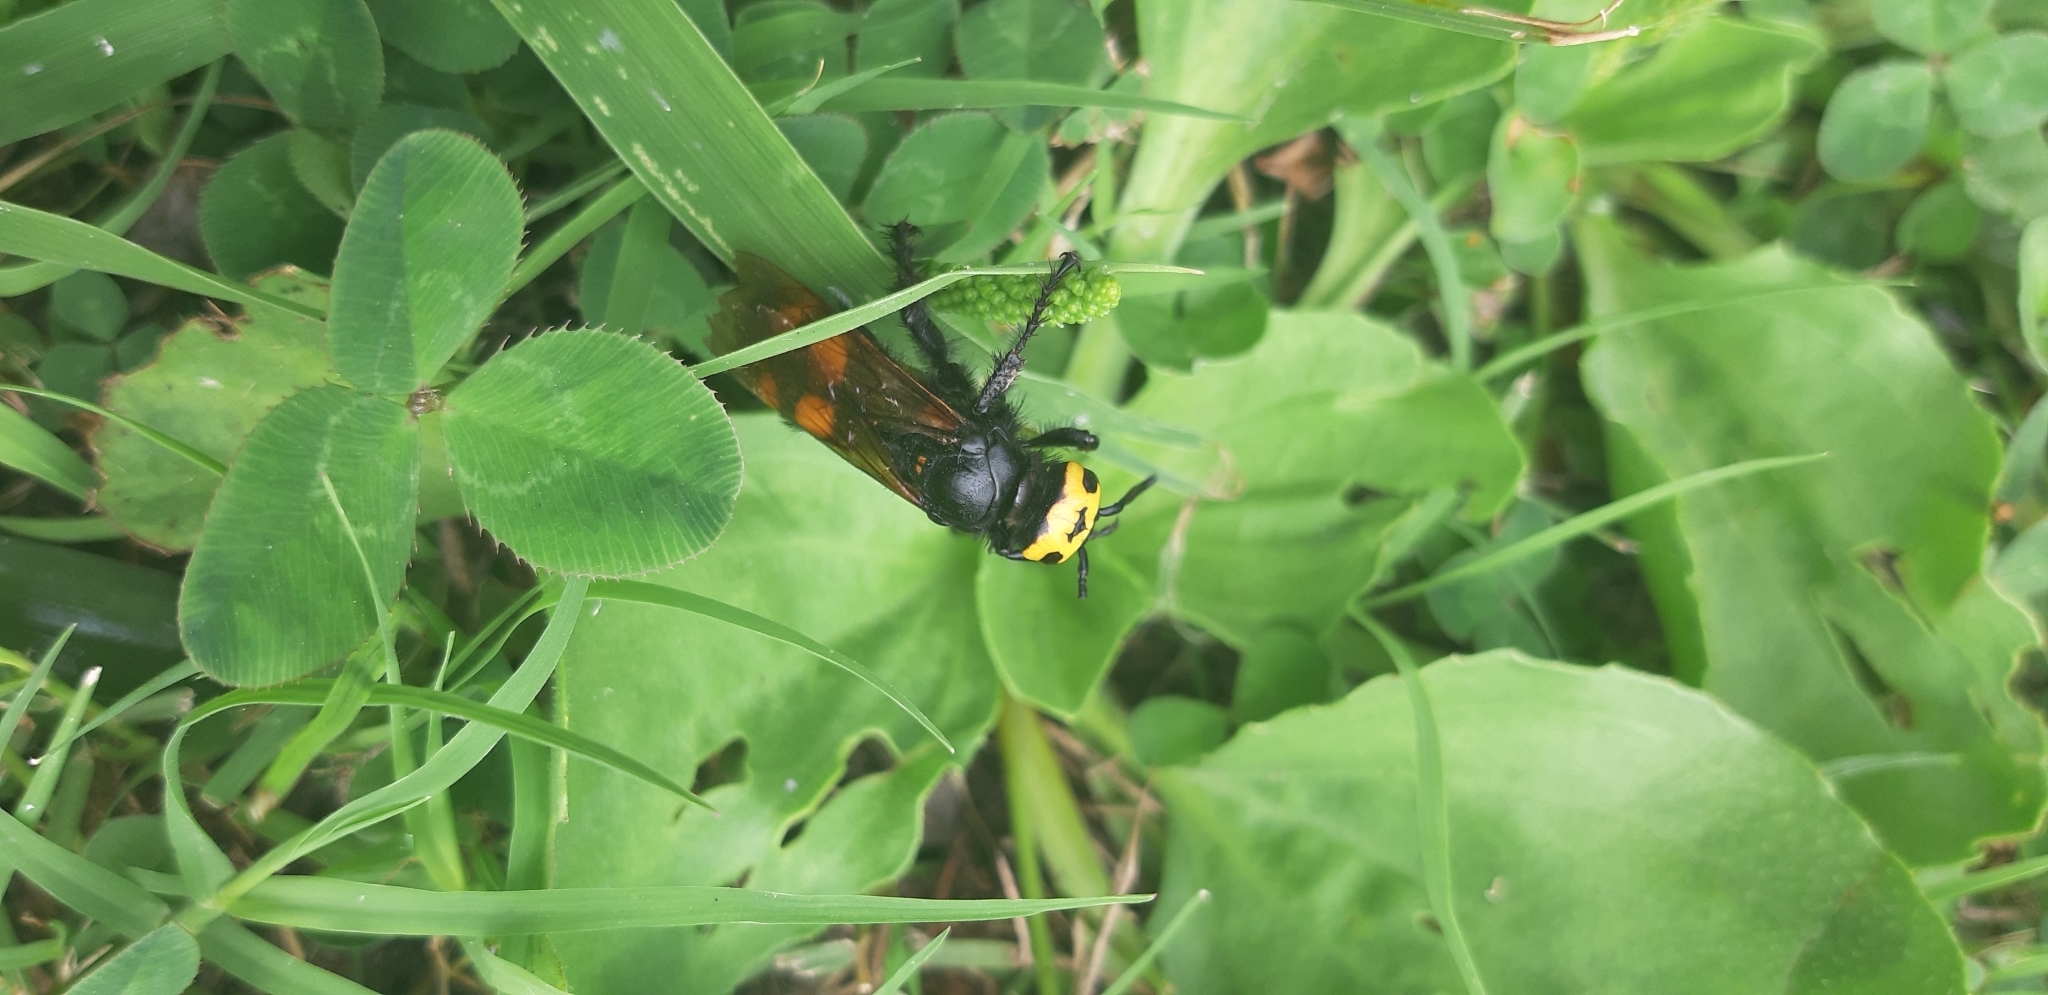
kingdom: Animalia
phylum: Arthropoda
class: Insecta
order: Hymenoptera
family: Scoliidae
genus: Megascolia
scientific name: Megascolia maculata
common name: Mammoth wasp
